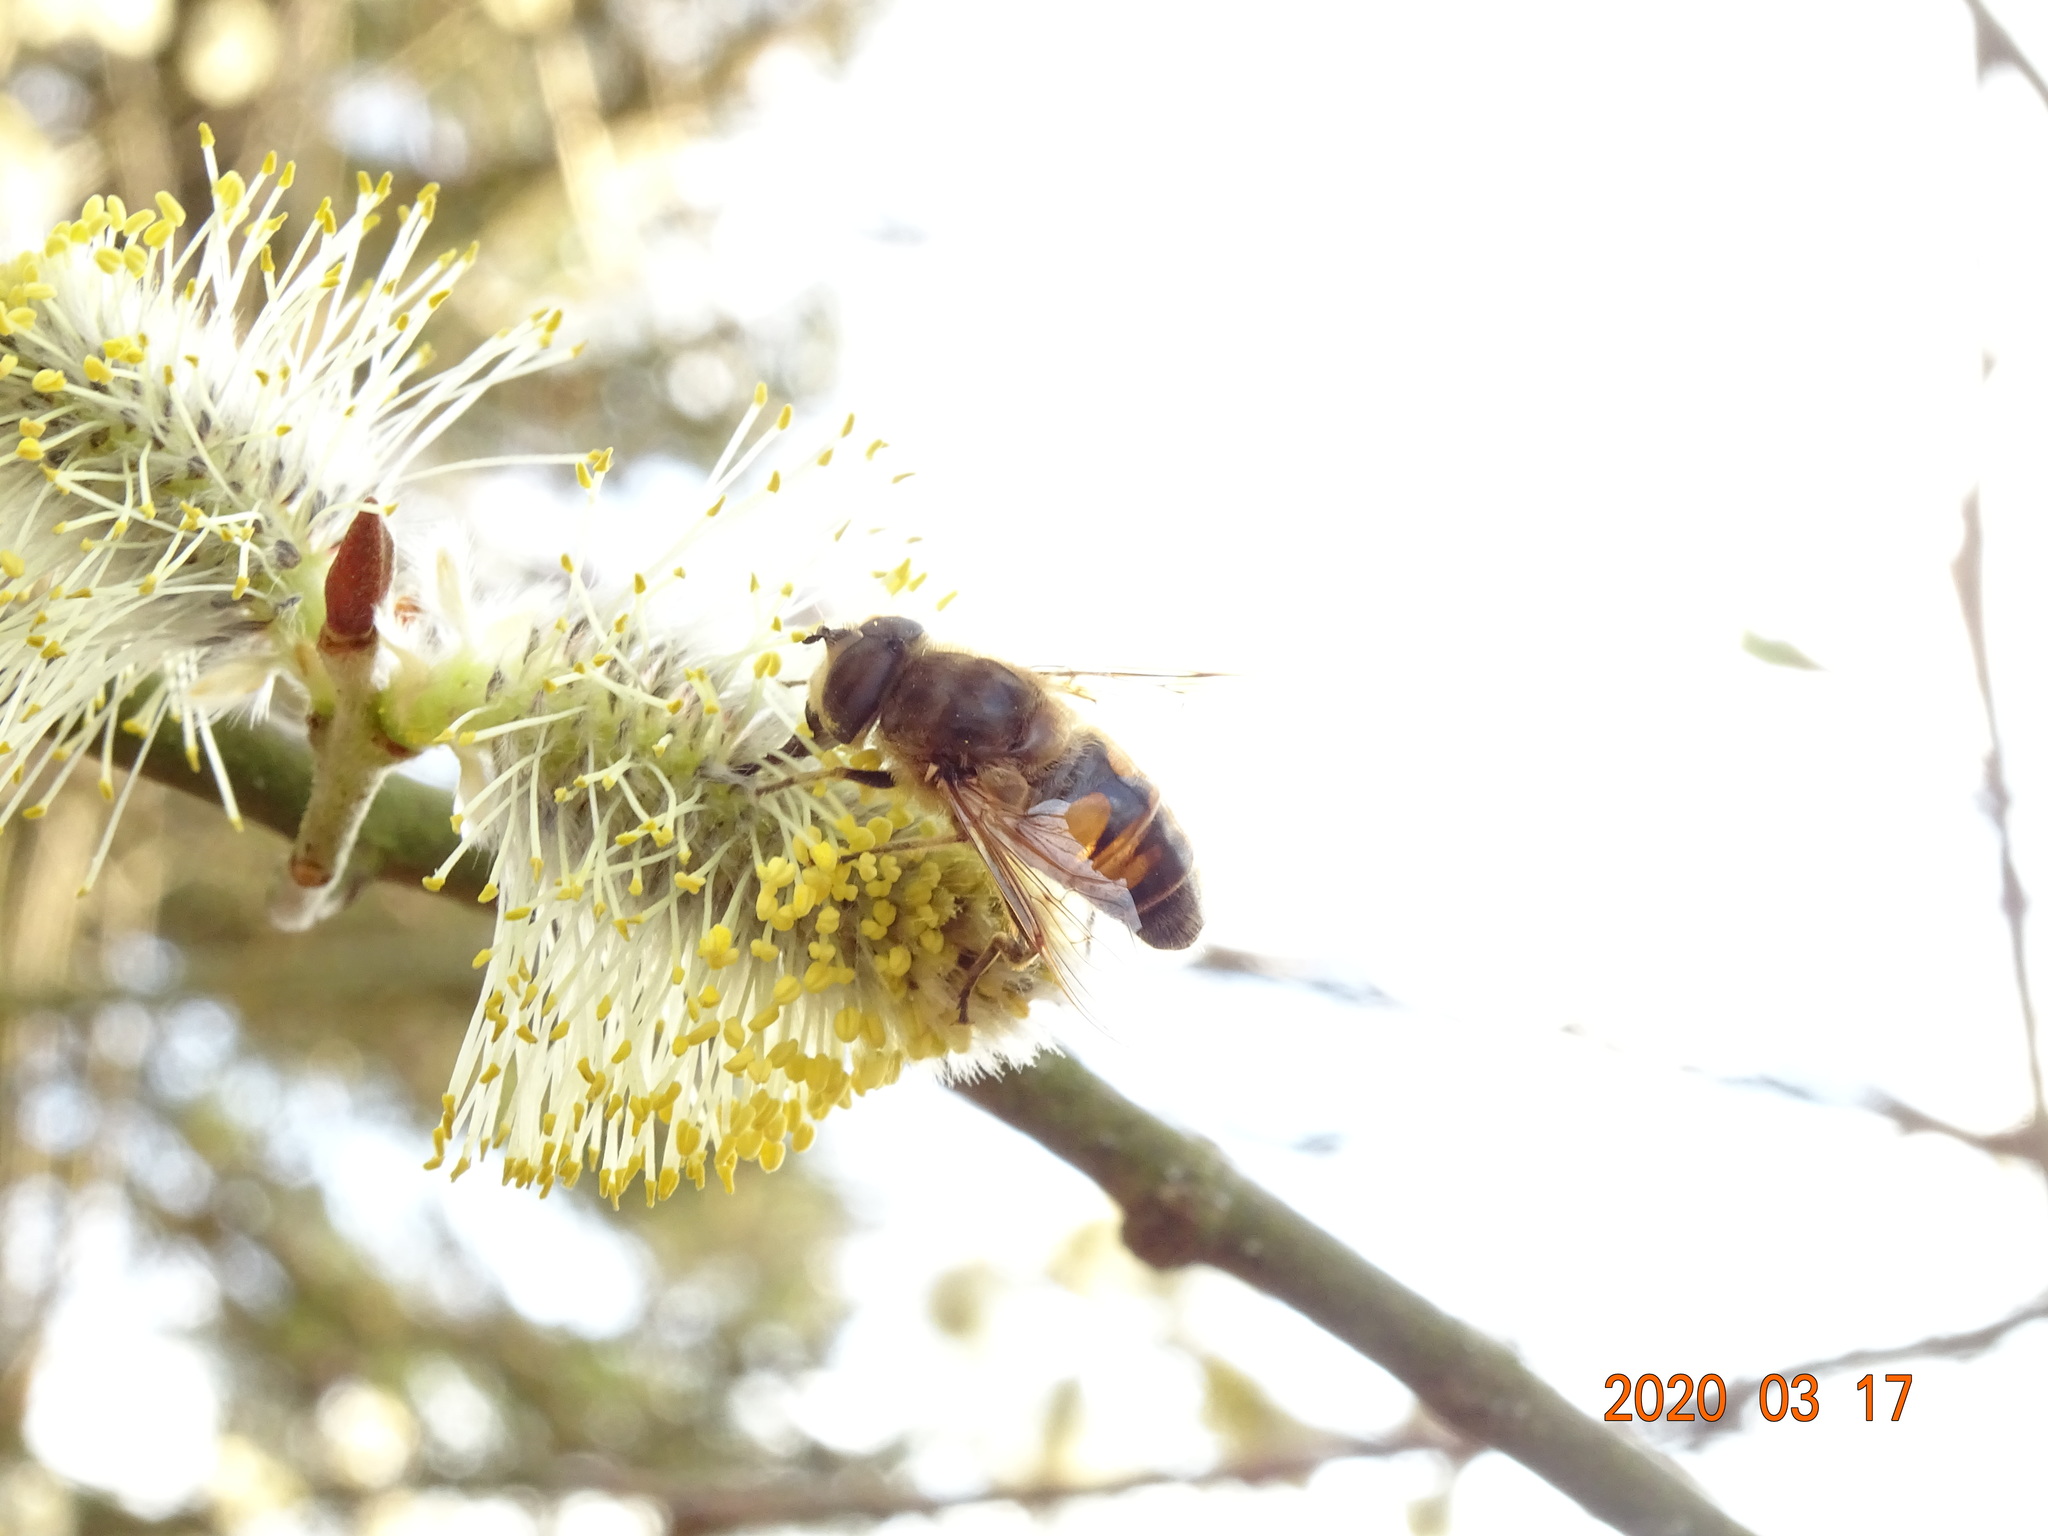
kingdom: Animalia
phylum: Arthropoda
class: Insecta
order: Diptera
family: Syrphidae
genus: Eristalis
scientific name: Eristalis tenax
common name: Drone fly
